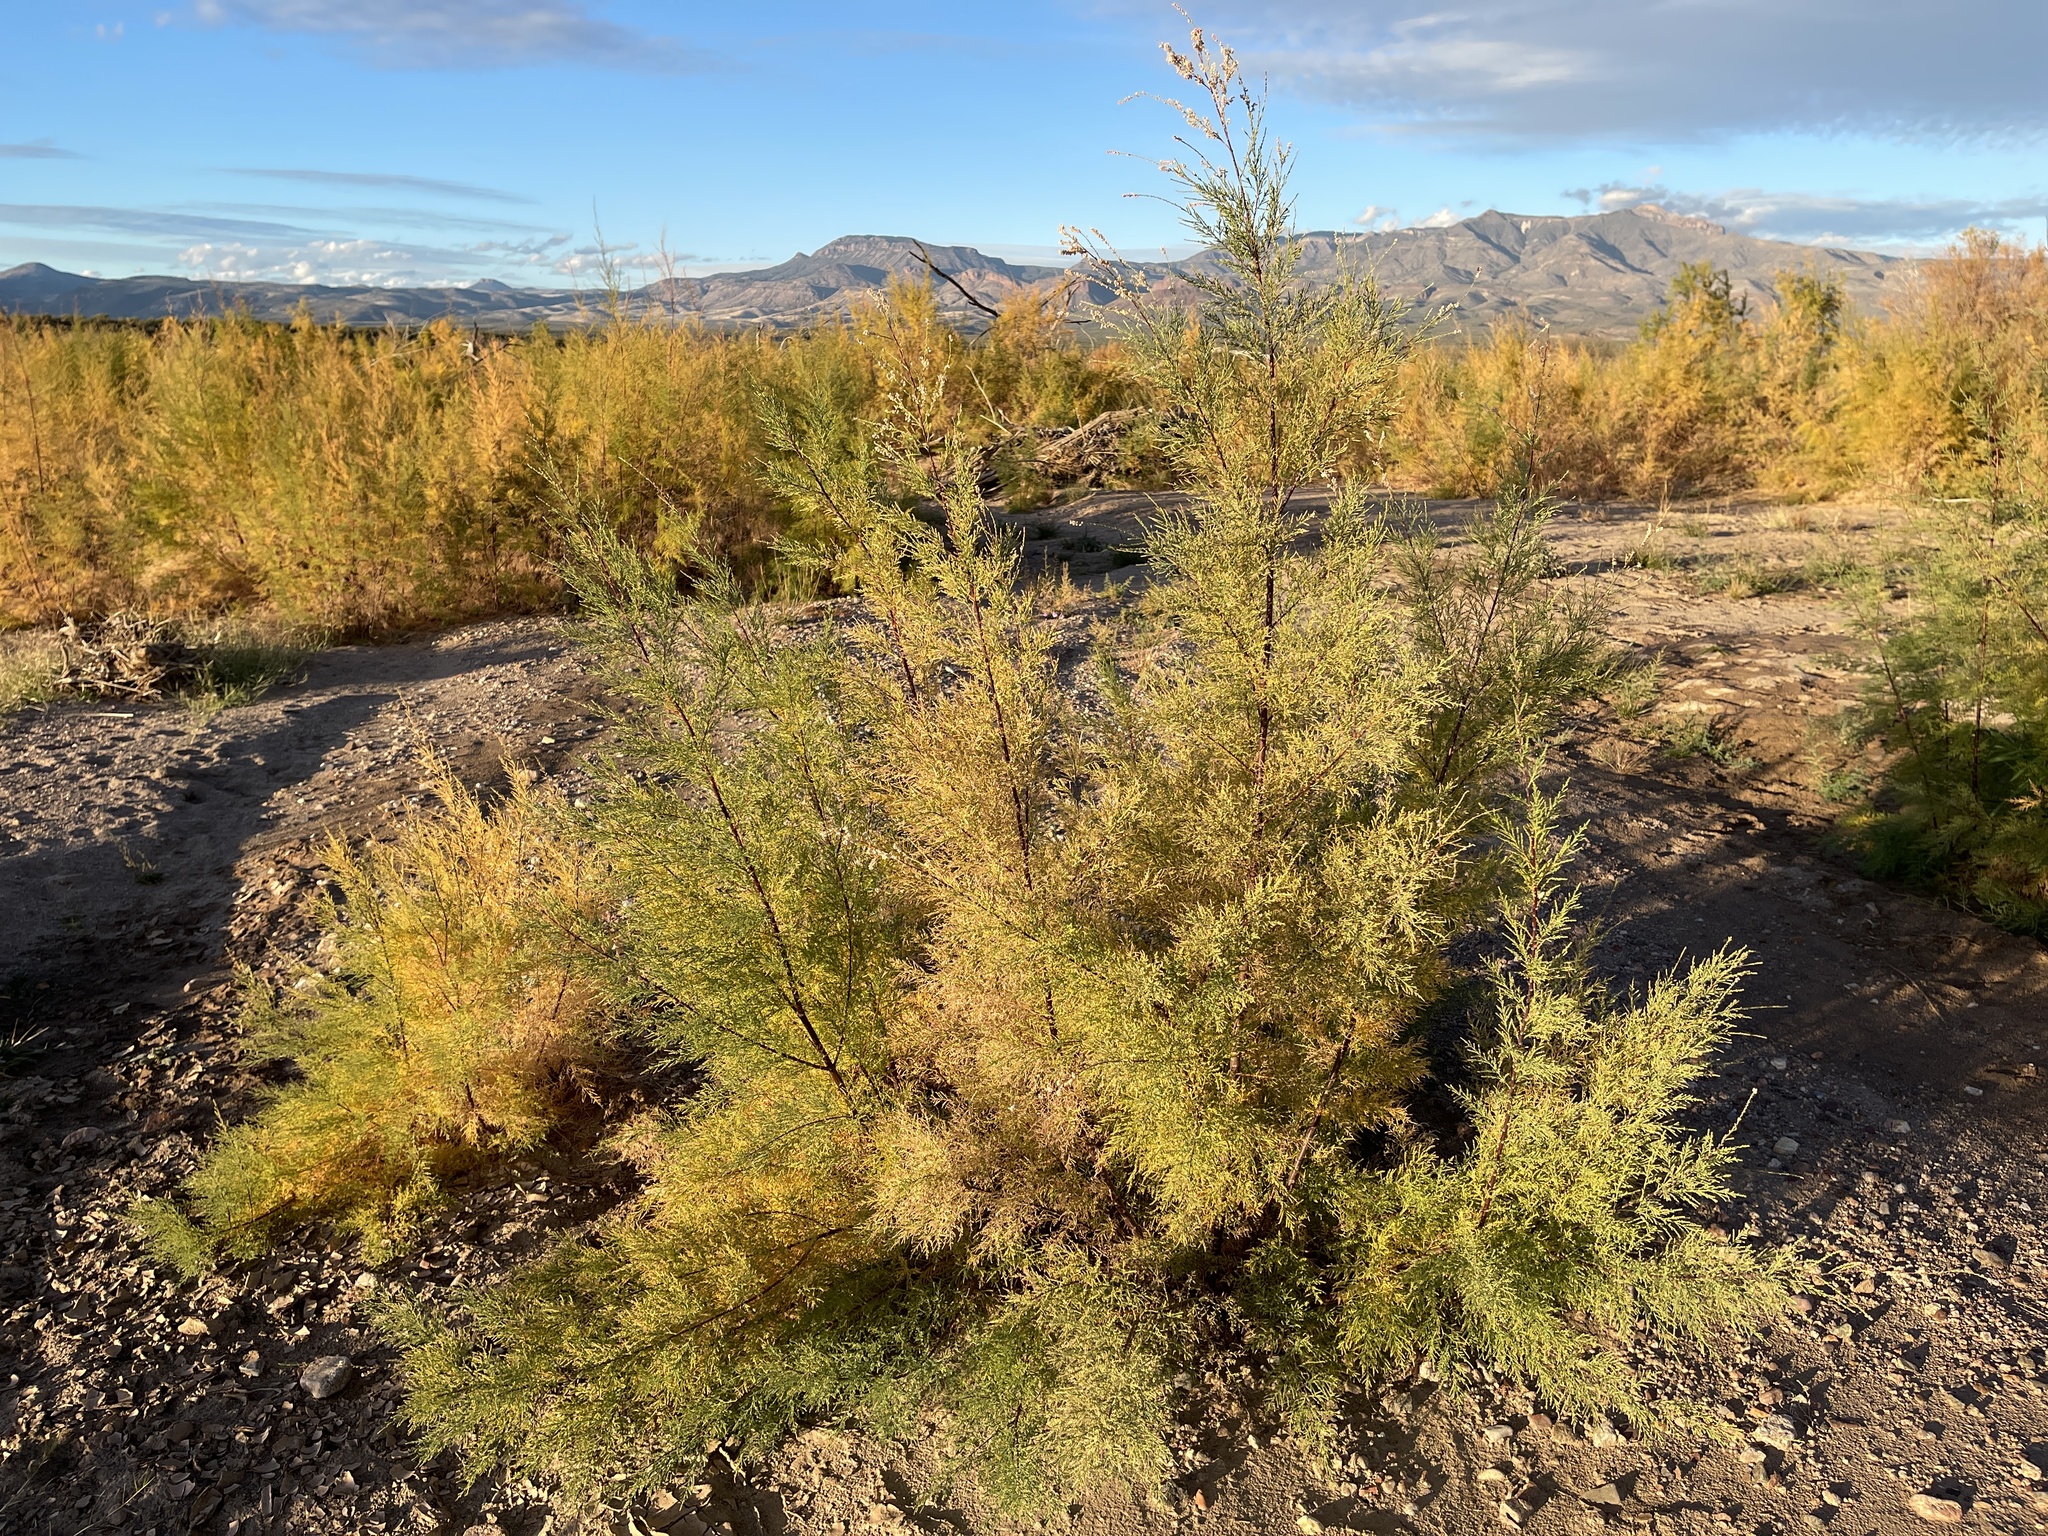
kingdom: Plantae
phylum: Tracheophyta
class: Magnoliopsida
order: Caryophyllales
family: Tamaricaceae
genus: Tamarix
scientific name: Tamarix
